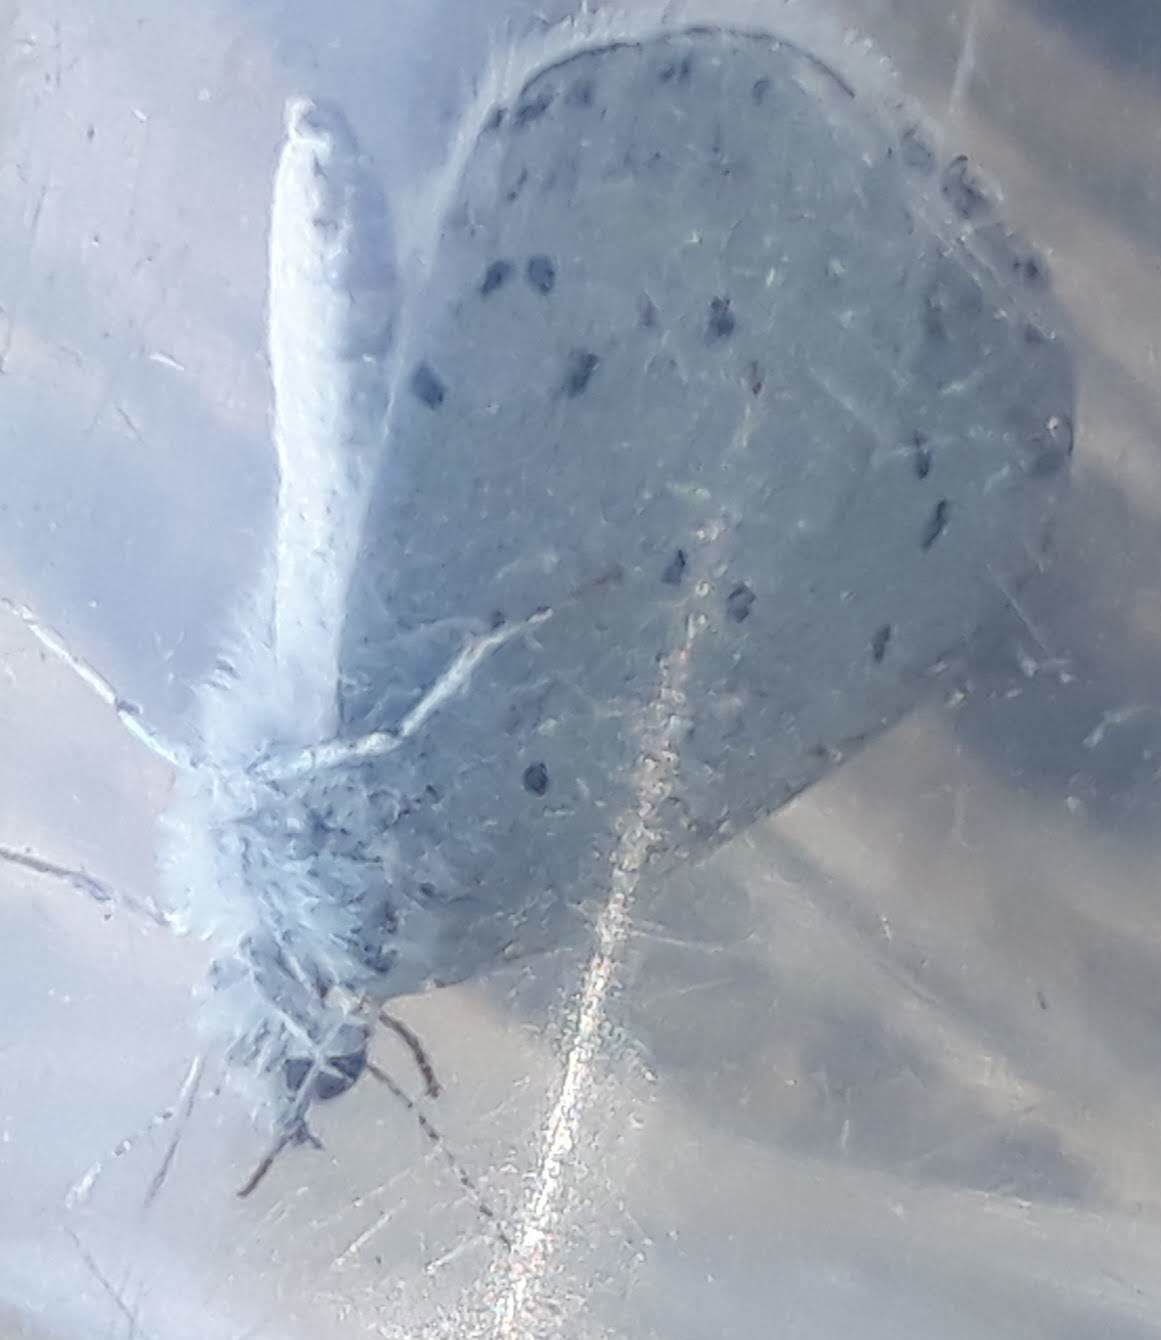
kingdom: Animalia
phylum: Arthropoda
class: Insecta
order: Lepidoptera
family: Lycaenidae
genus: Celastrina
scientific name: Celastrina argiolus
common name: Holly blue
